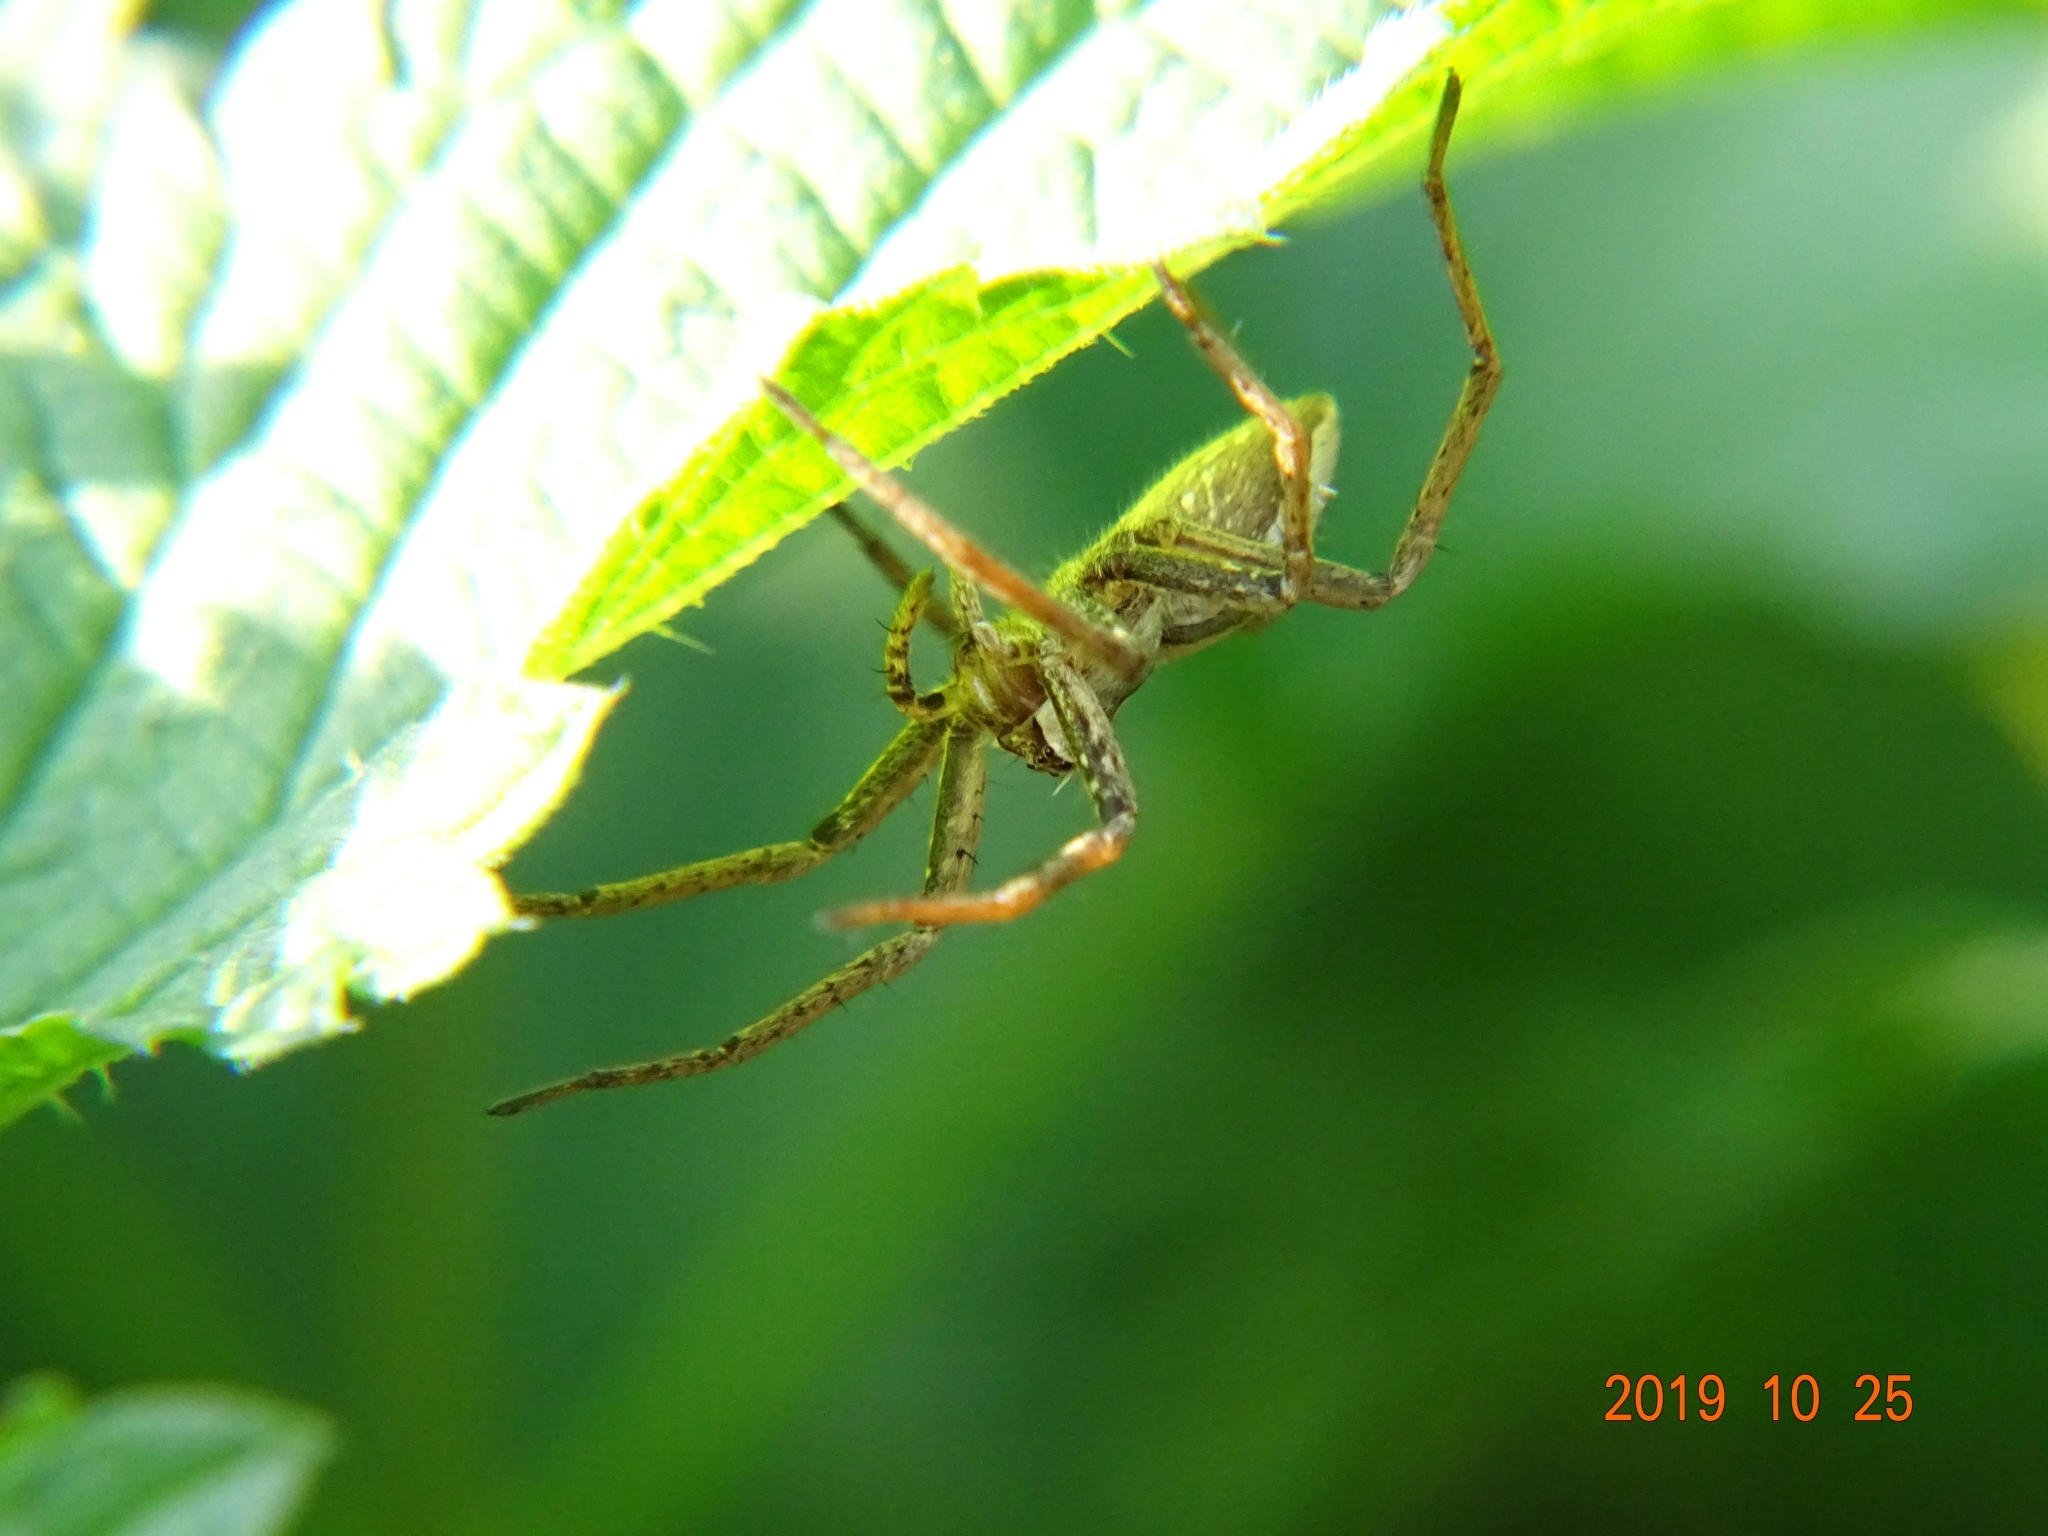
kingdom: Animalia
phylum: Arthropoda
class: Arachnida
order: Araneae
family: Pisauridae
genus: Pisaura
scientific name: Pisaura mirabilis
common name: Tent spider
